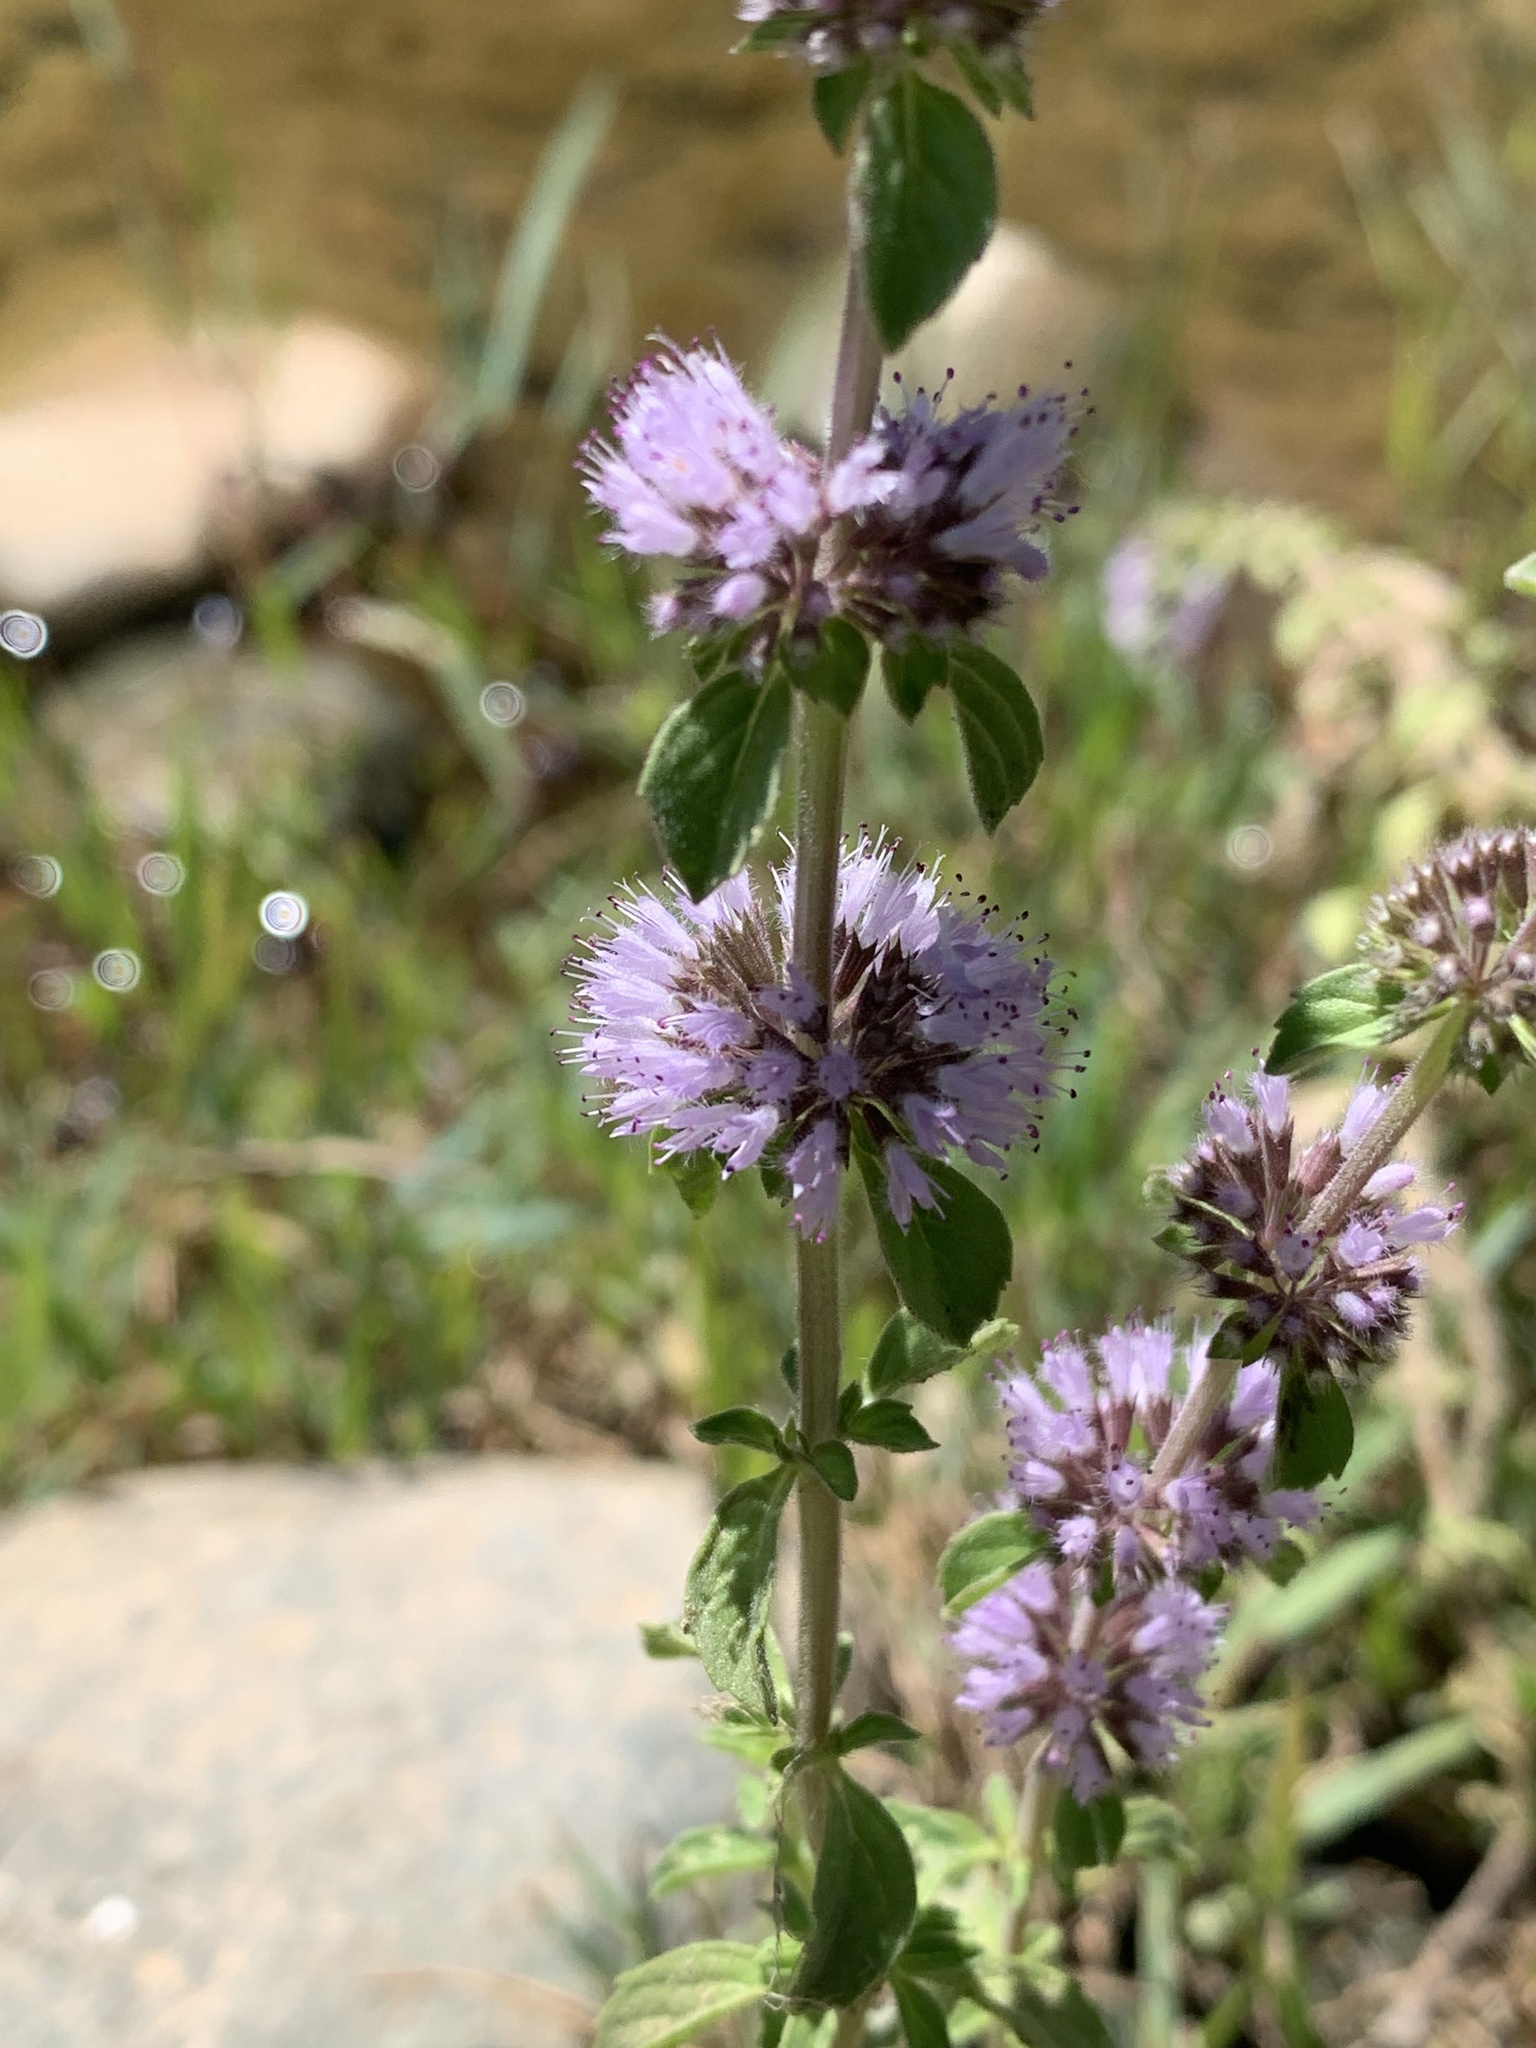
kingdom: Plantae
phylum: Tracheophyta
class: Magnoliopsida
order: Lamiales
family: Lamiaceae
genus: Mentha
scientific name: Mentha pulegium
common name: Pennyroyal
